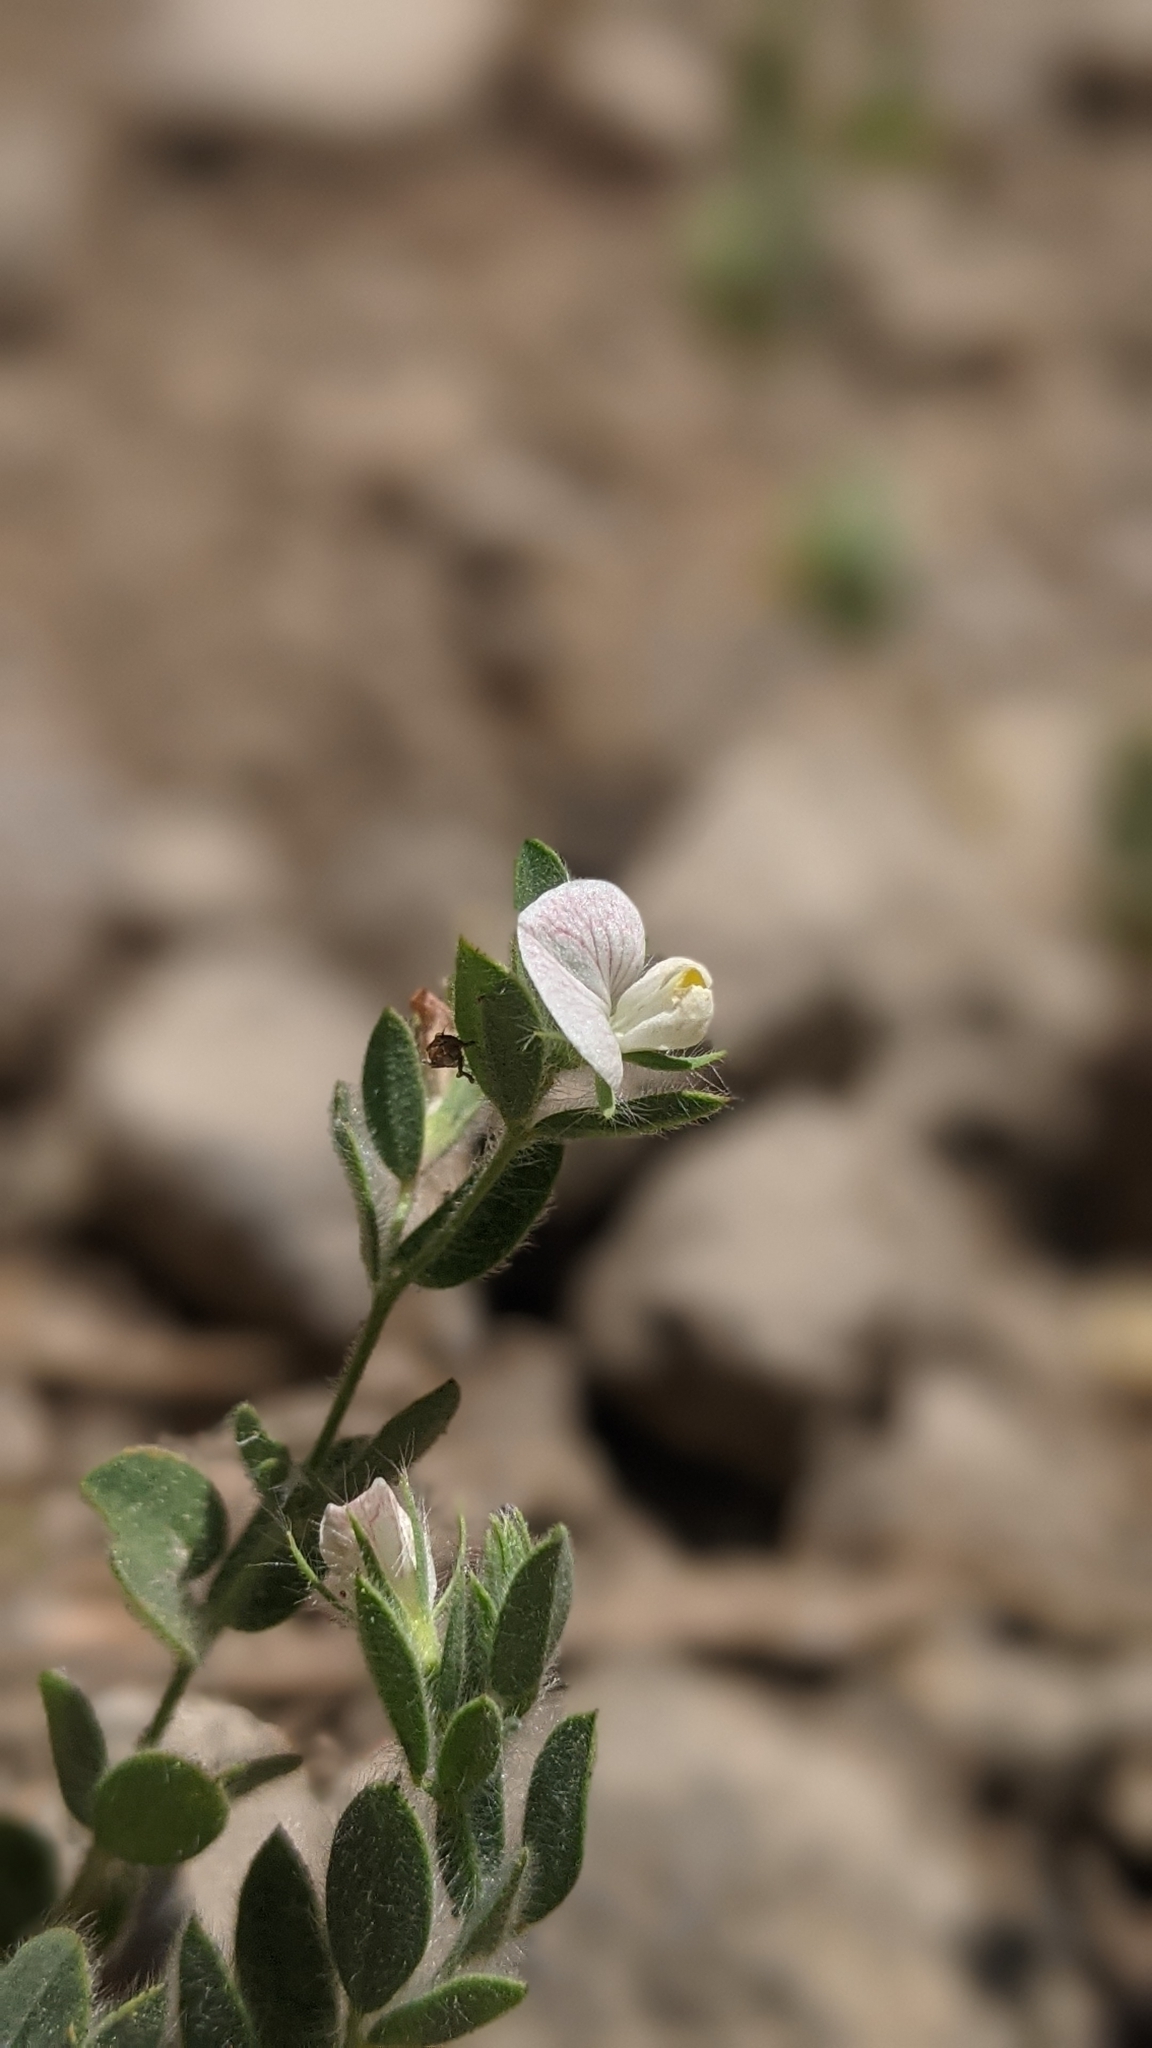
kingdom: Plantae
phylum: Tracheophyta
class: Magnoliopsida
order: Fabales
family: Fabaceae
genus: Acmispon
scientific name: Acmispon americanus
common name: American bird's-foot trefoil
